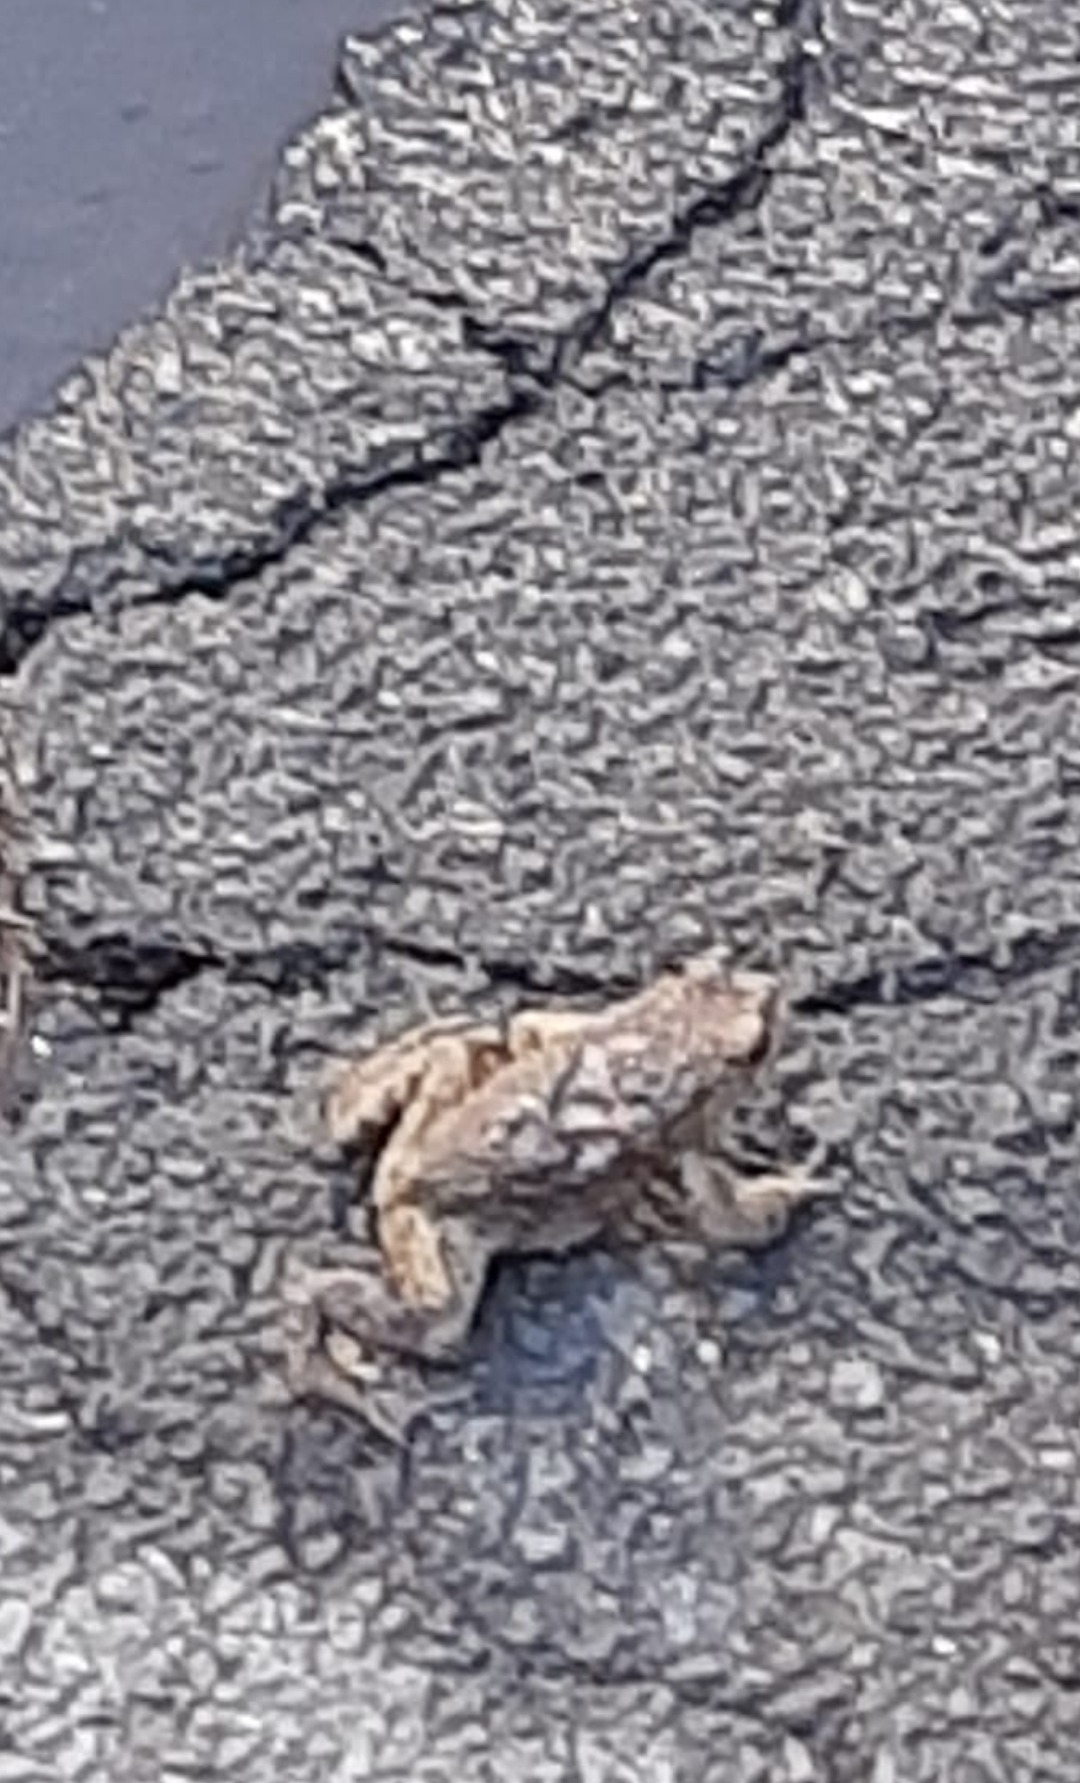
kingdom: Animalia
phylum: Chordata
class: Amphibia
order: Anura
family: Bufonidae
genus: Bufo
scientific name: Bufo bufo
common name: Common toad
